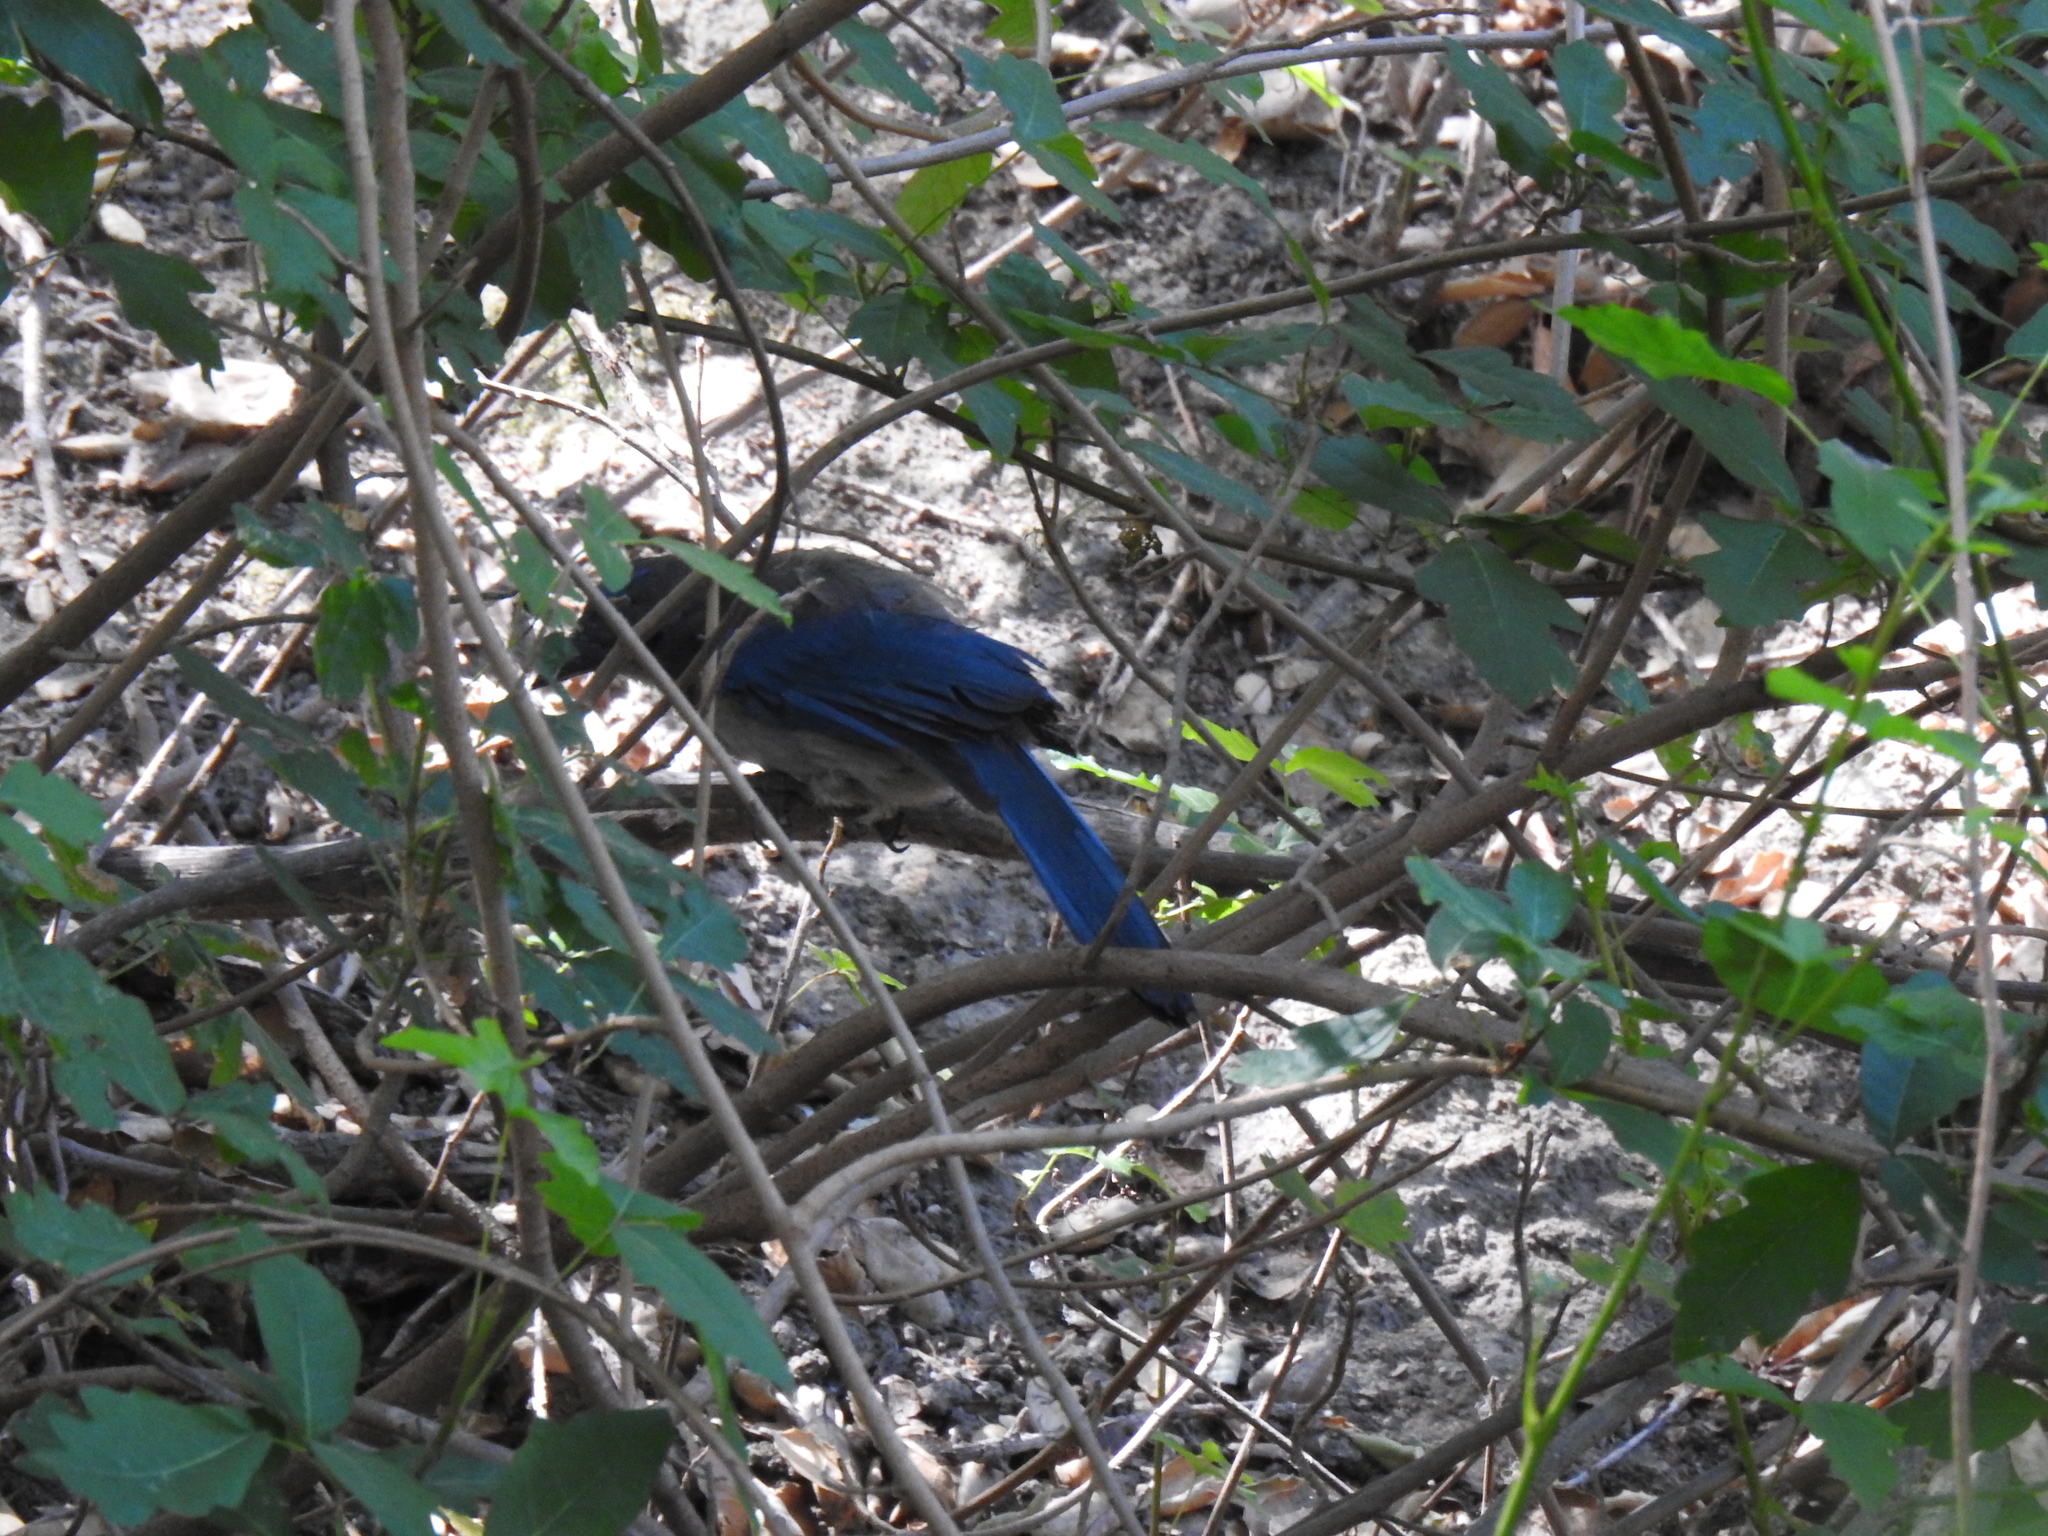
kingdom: Animalia
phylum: Chordata
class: Aves
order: Passeriformes
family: Corvidae
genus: Aphelocoma
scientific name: Aphelocoma californica
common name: California scrub-jay
